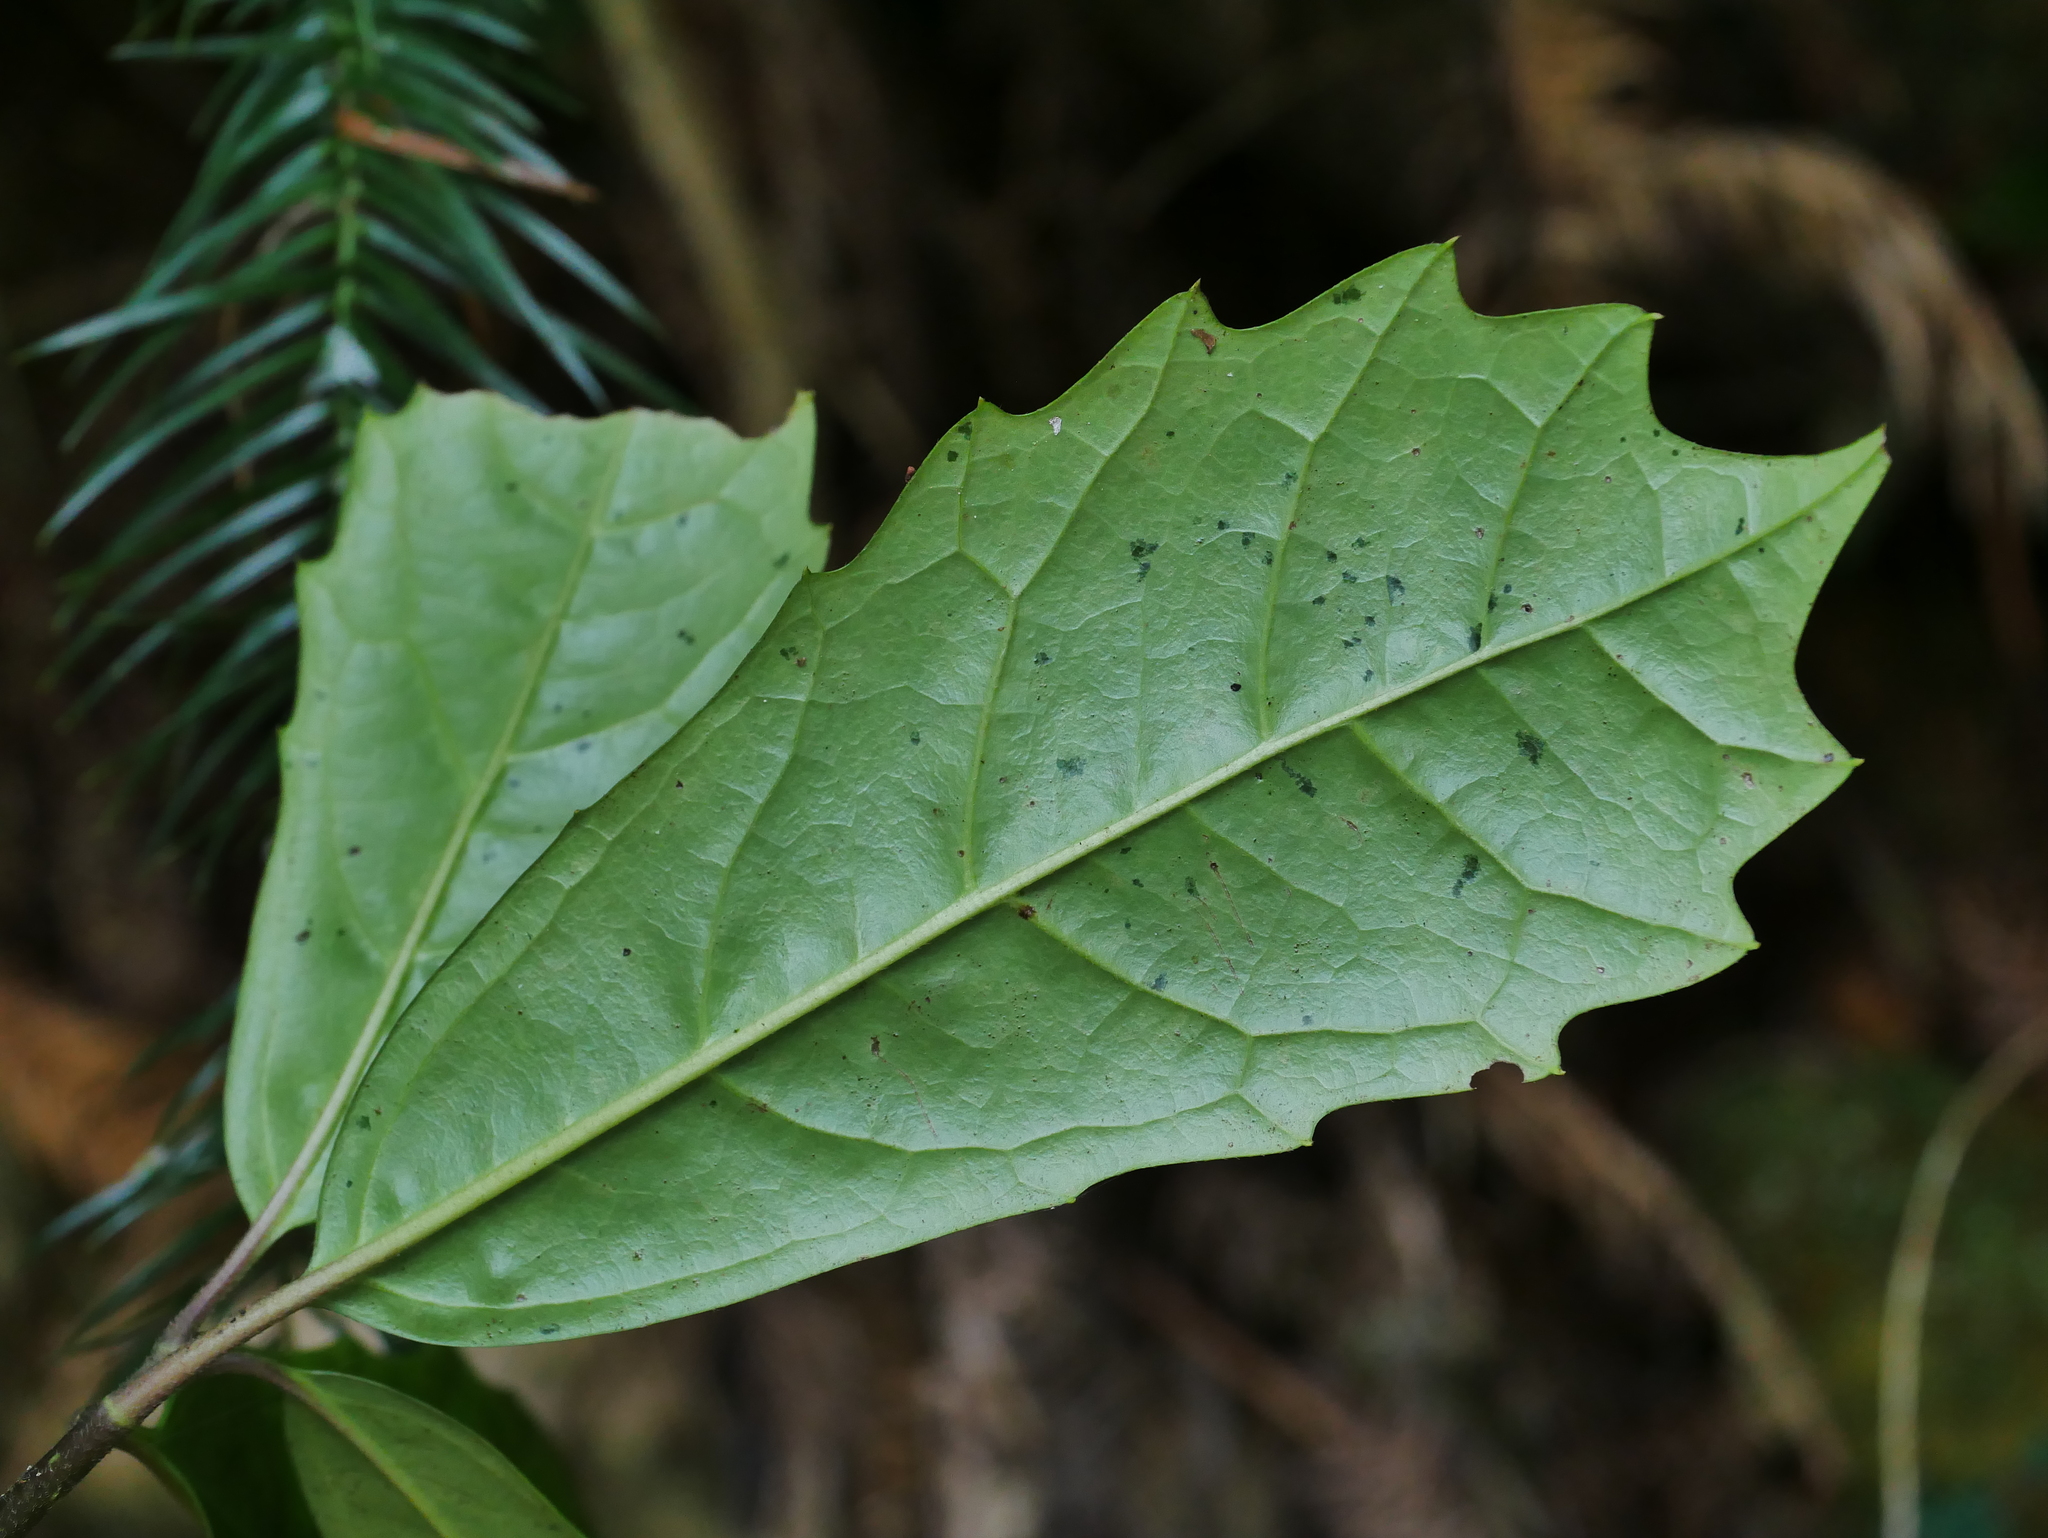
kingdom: Plantae
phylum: Tracheophyta
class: Magnoliopsida
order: Garryales
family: Garryaceae
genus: Aucuba
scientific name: Aucuba obcordata
